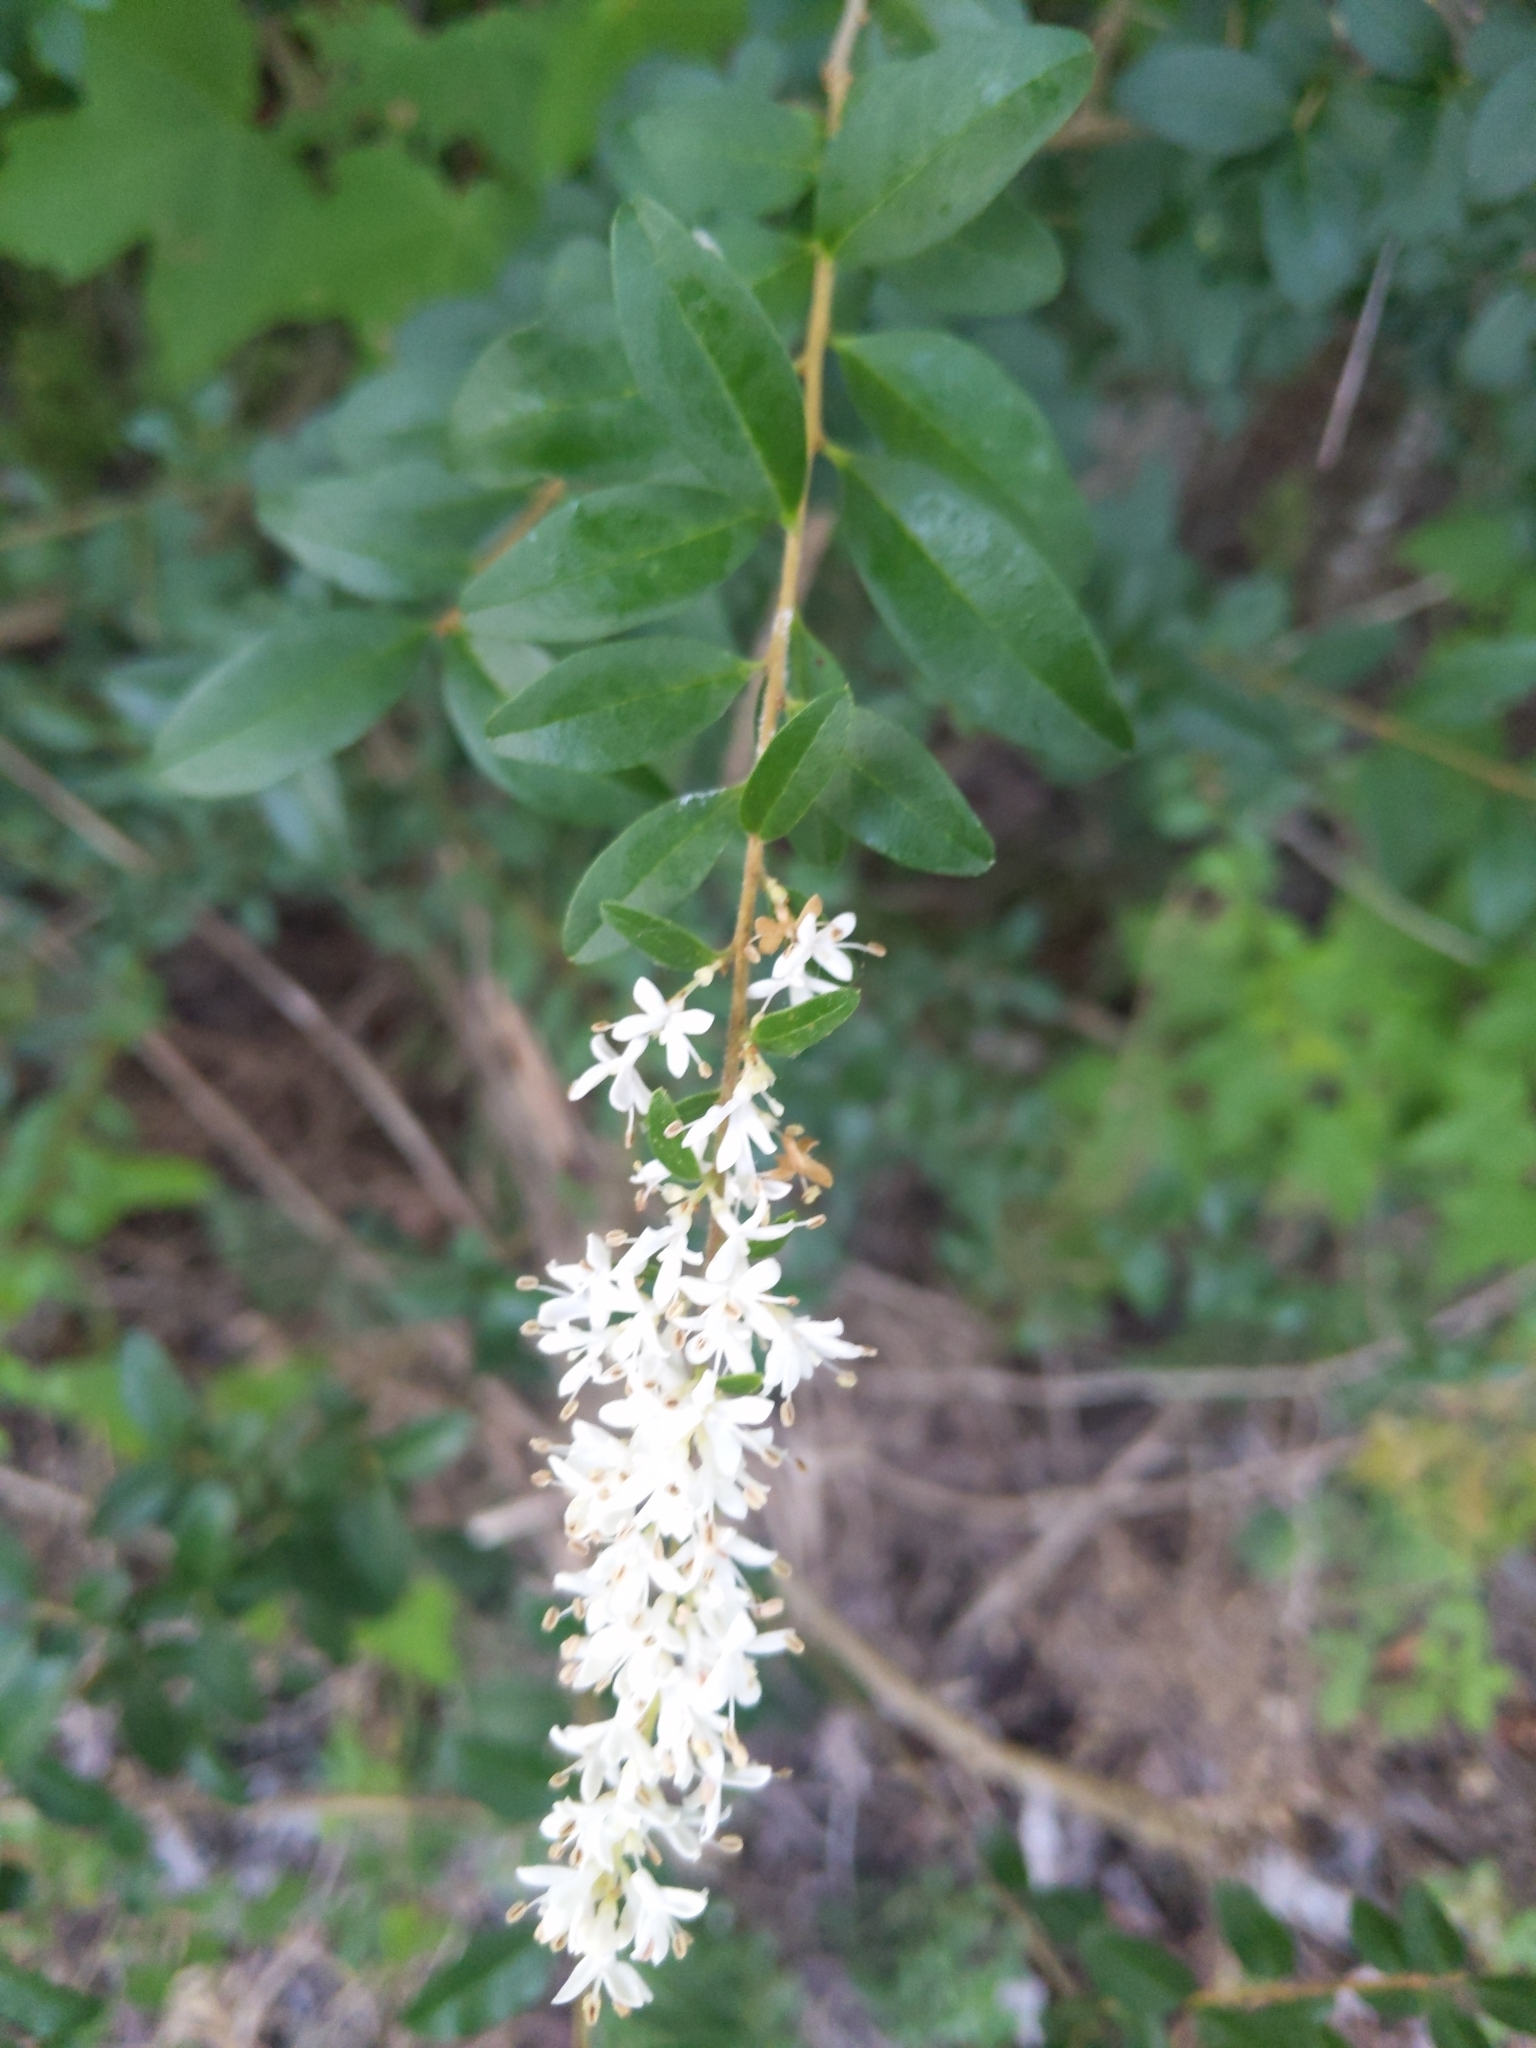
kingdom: Plantae
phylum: Tracheophyta
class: Magnoliopsida
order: Lamiales
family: Oleaceae
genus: Ligustrum
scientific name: Ligustrum sinense
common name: Chinese privet
